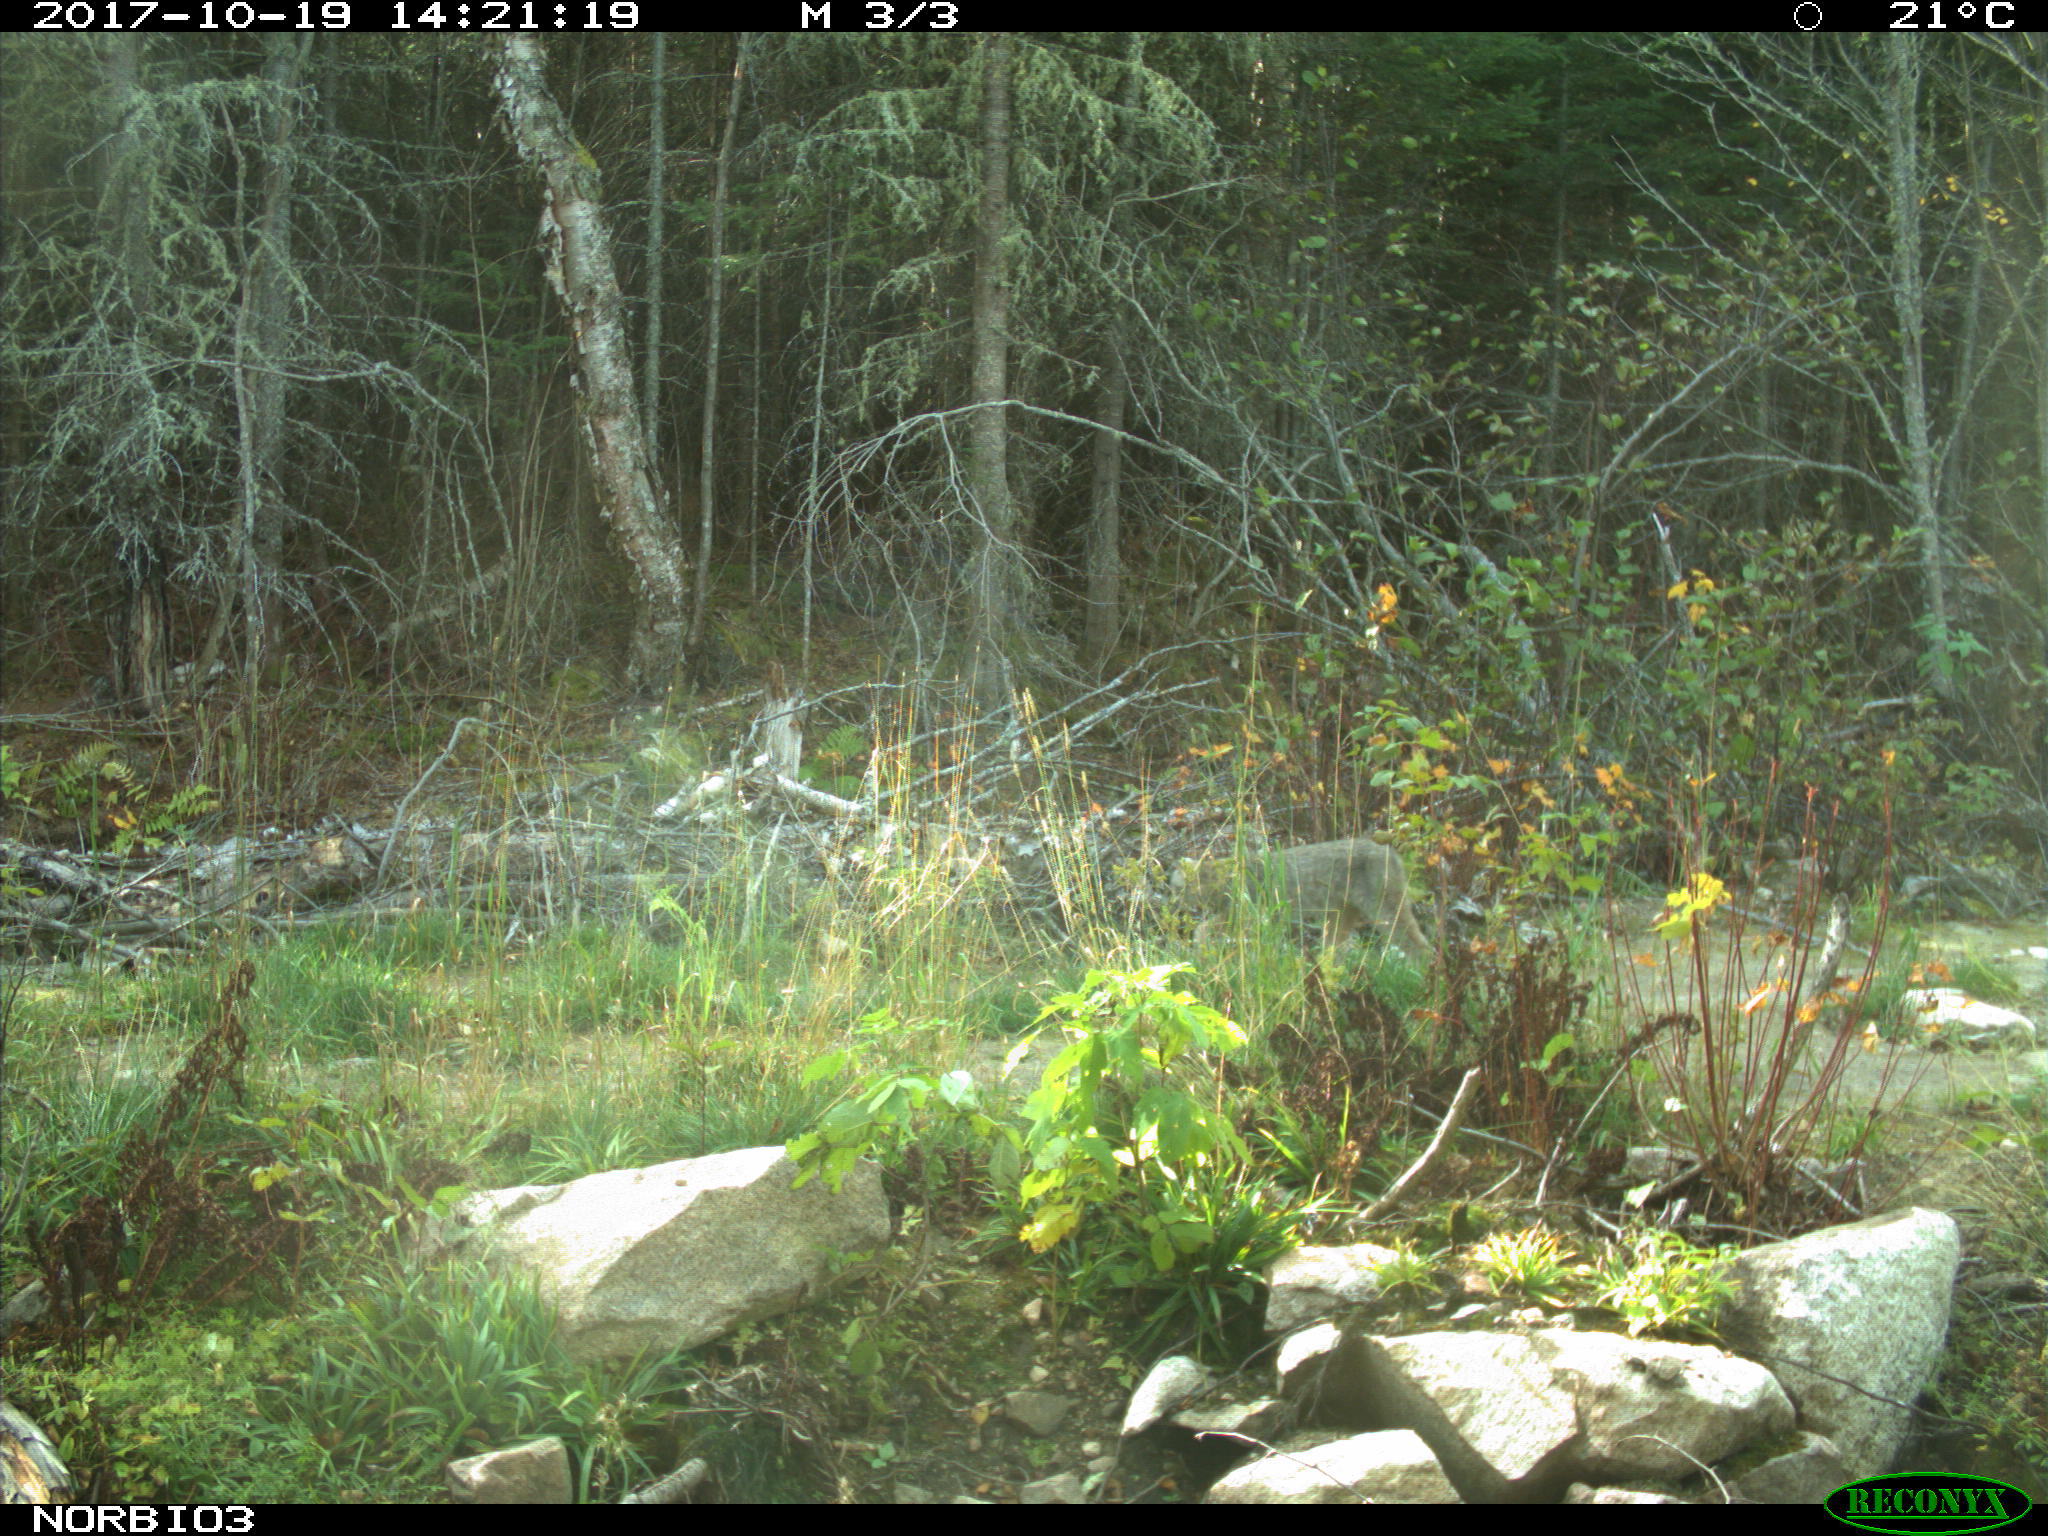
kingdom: Animalia
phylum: Chordata
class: Mammalia
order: Carnivora
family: Felidae
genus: Lynx
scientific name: Lynx canadensis
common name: Canadian lynx
